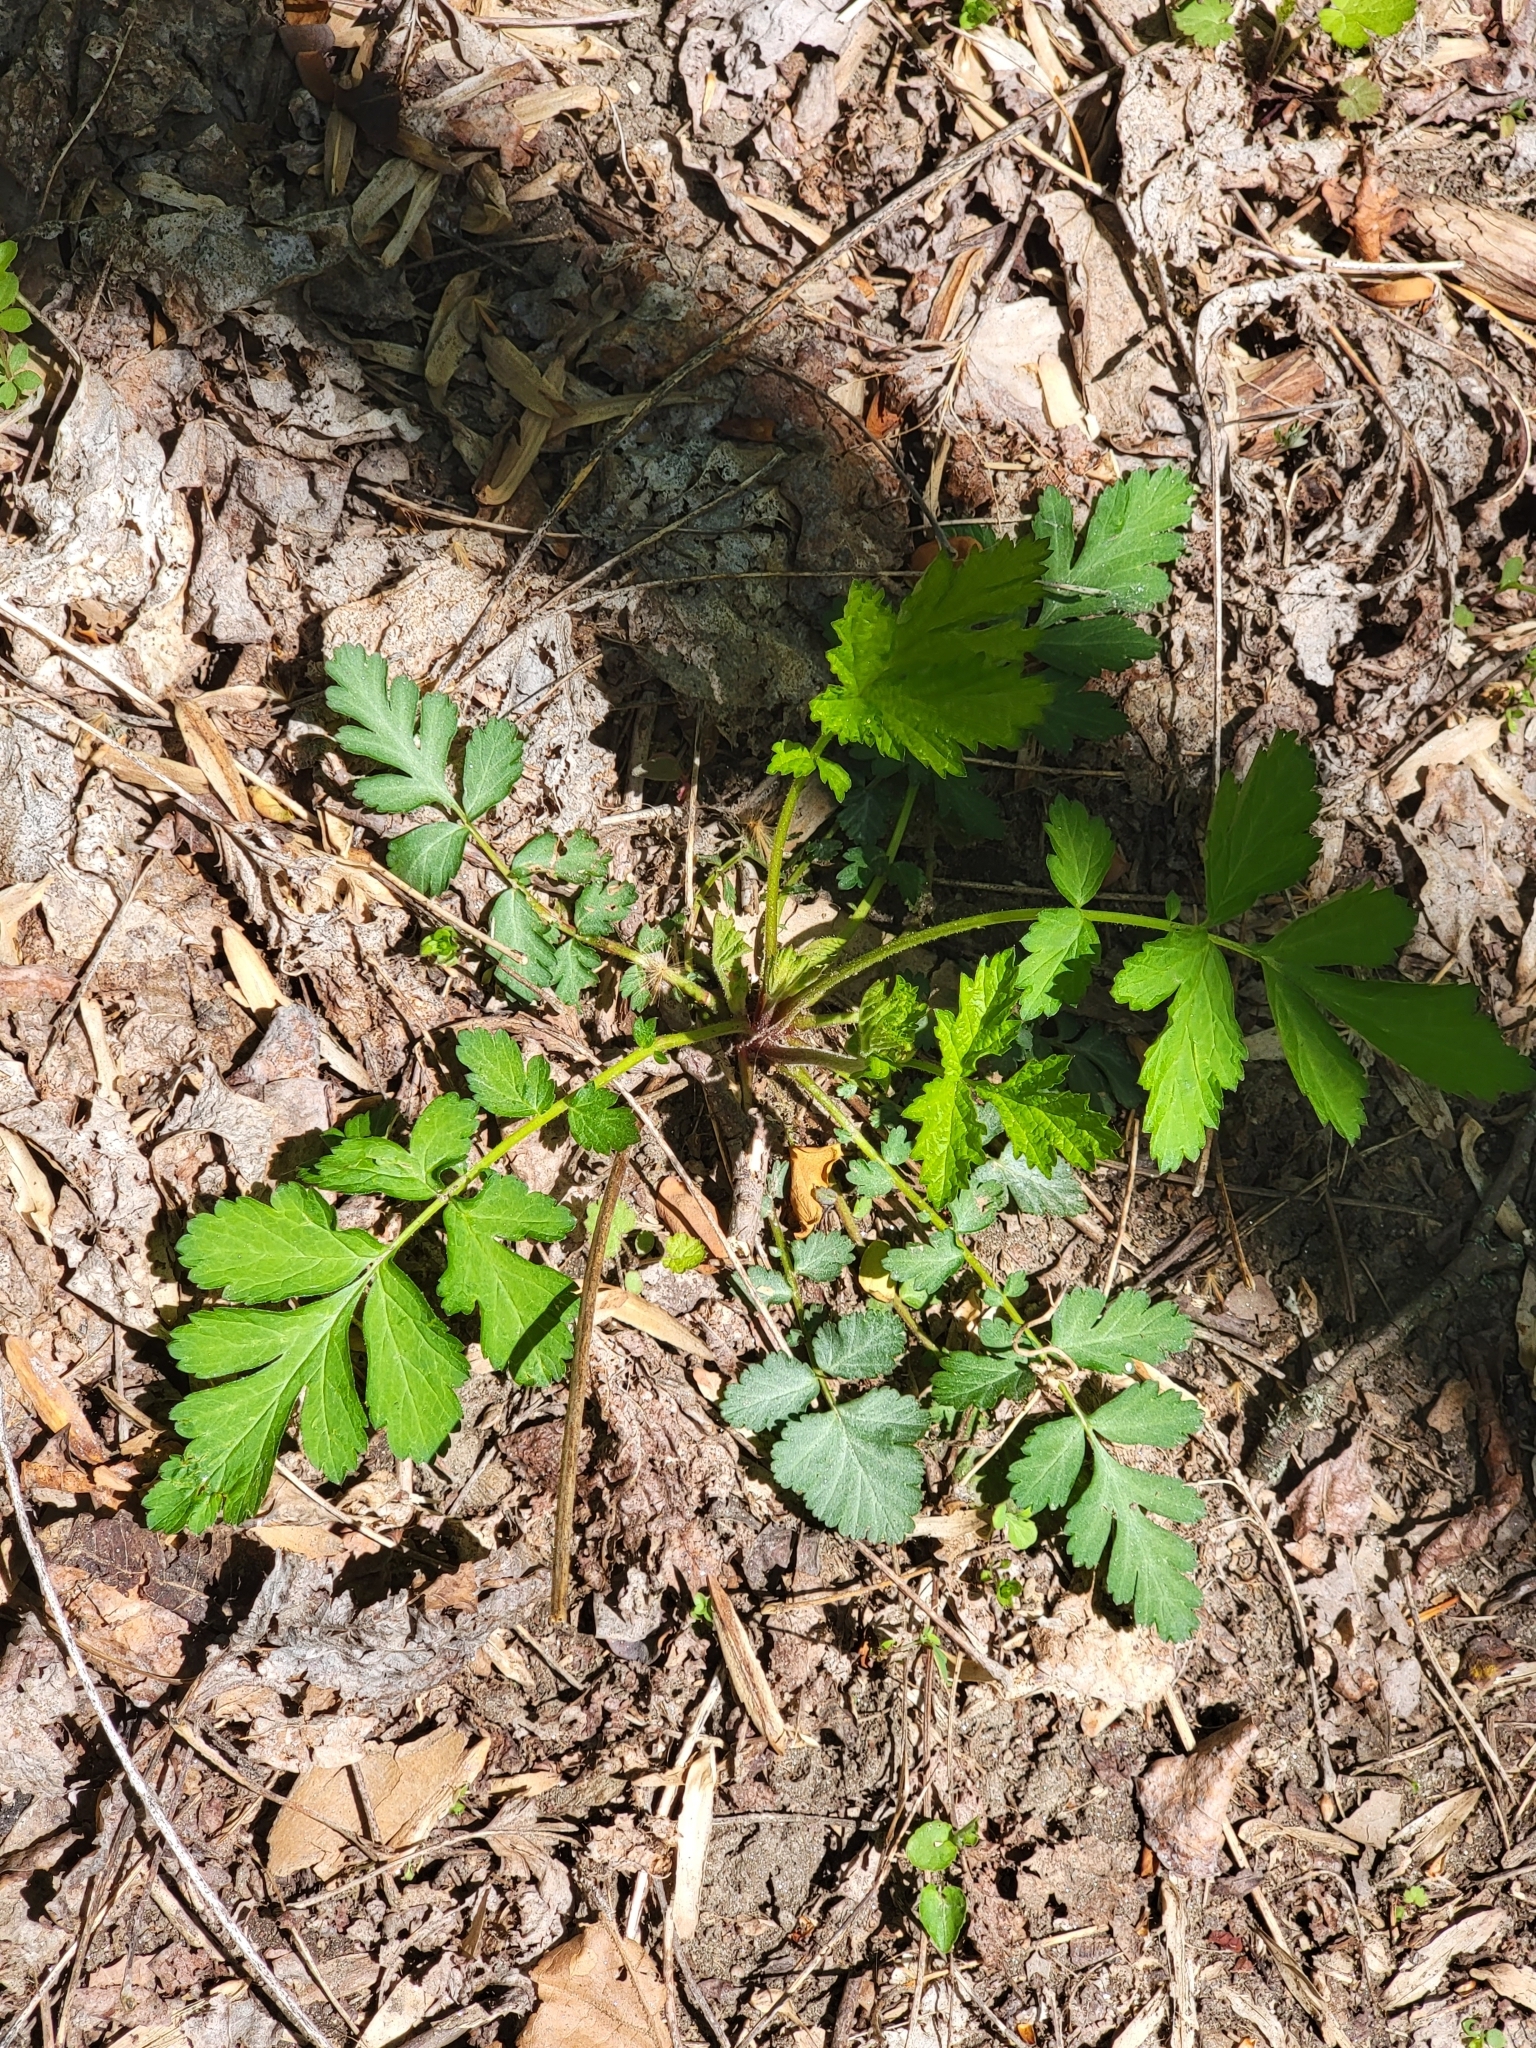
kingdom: Plantae
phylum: Tracheophyta
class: Magnoliopsida
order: Rosales
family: Rosaceae
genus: Geum
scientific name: Geum canadense
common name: White avens
